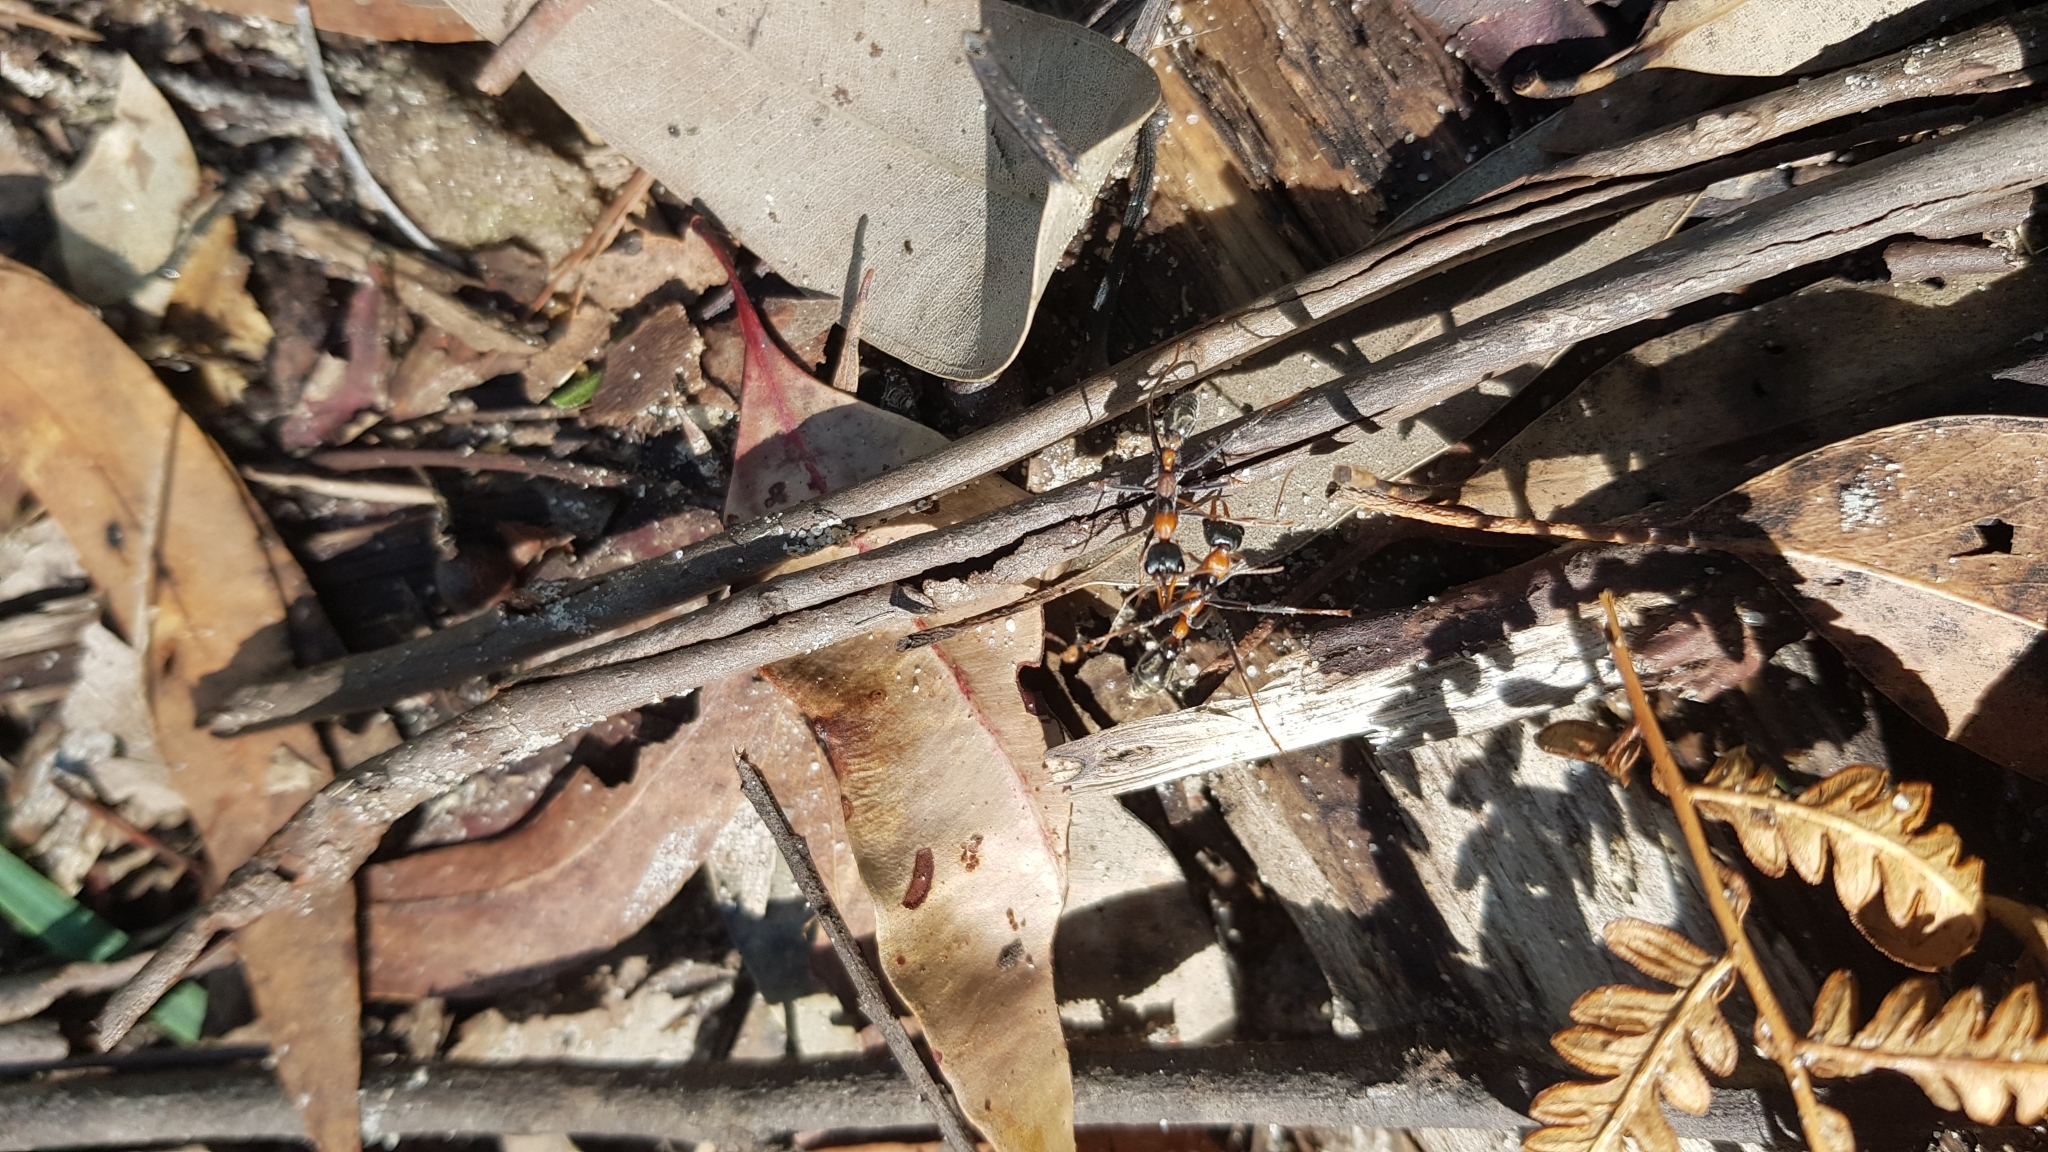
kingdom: Animalia
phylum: Arthropoda
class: Insecta
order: Hymenoptera
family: Formicidae
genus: Myrmecia
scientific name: Myrmecia nigrocincta
